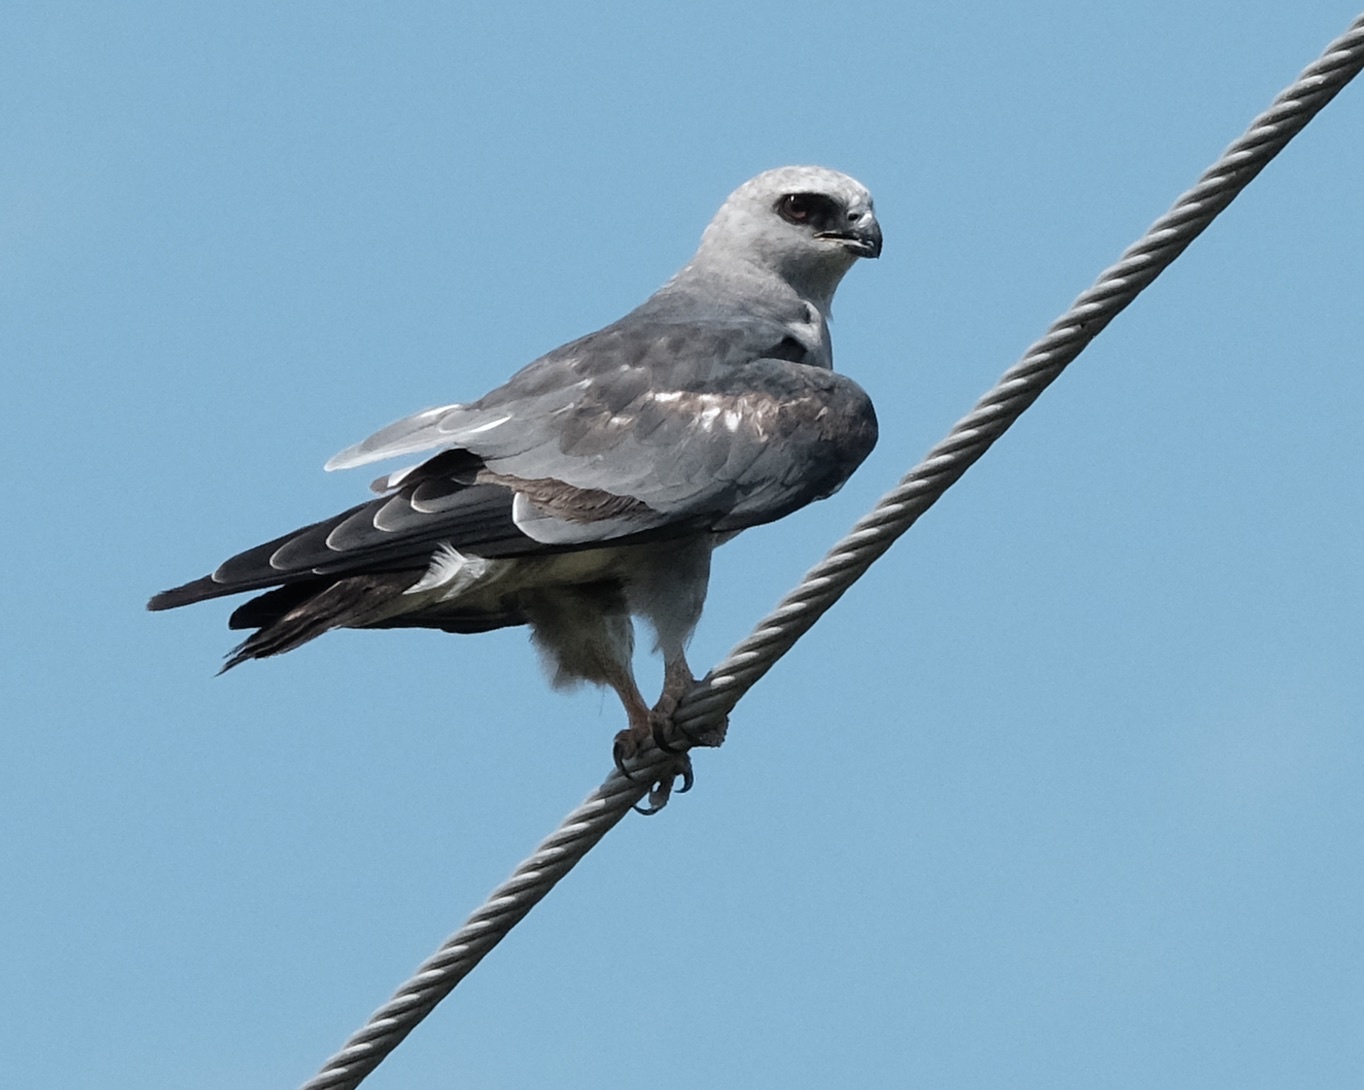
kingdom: Animalia
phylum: Chordata
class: Aves
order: Accipitriformes
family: Accipitridae
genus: Ictinia
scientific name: Ictinia mississippiensis
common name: Mississippi kite
